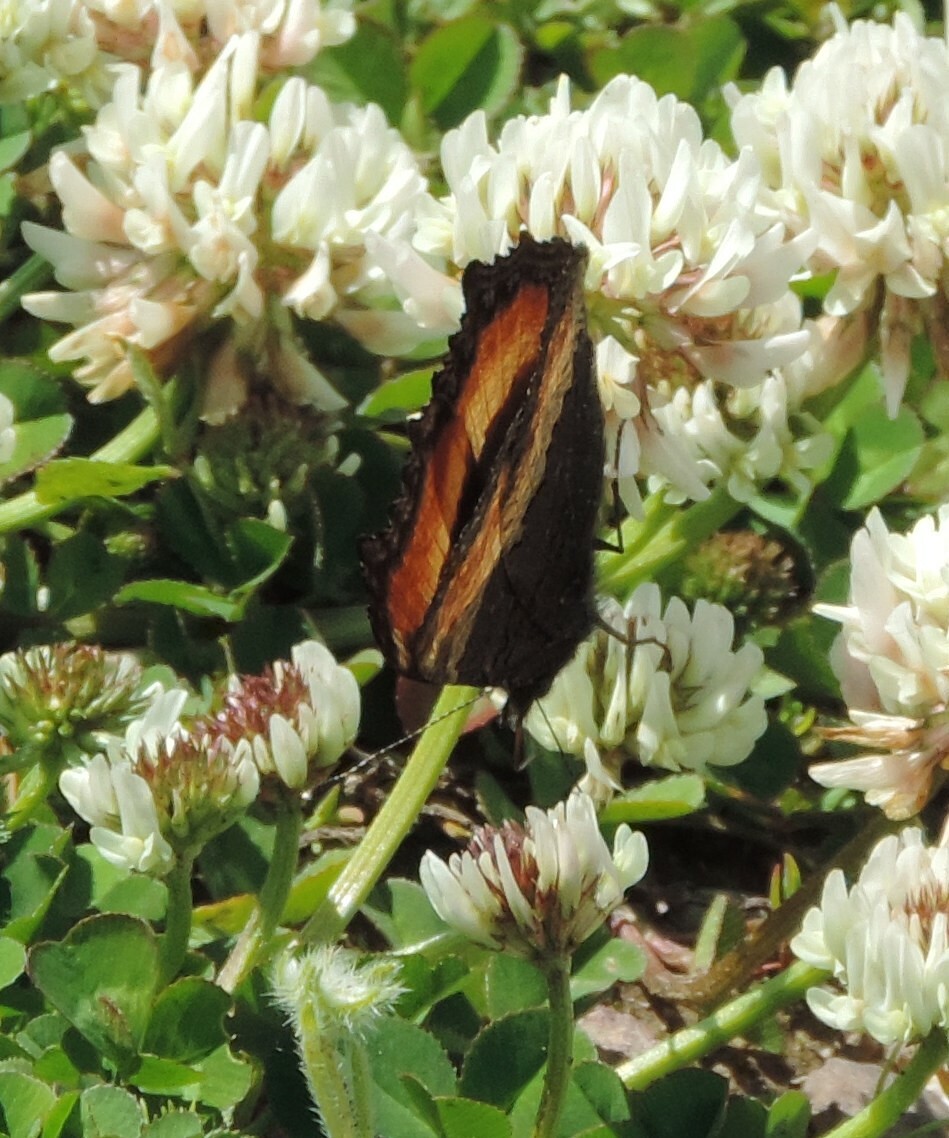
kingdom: Animalia
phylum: Arthropoda
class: Insecta
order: Lepidoptera
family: Nymphalidae
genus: Aglais
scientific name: Aglais milberti
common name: Milbert's tortoiseshell
